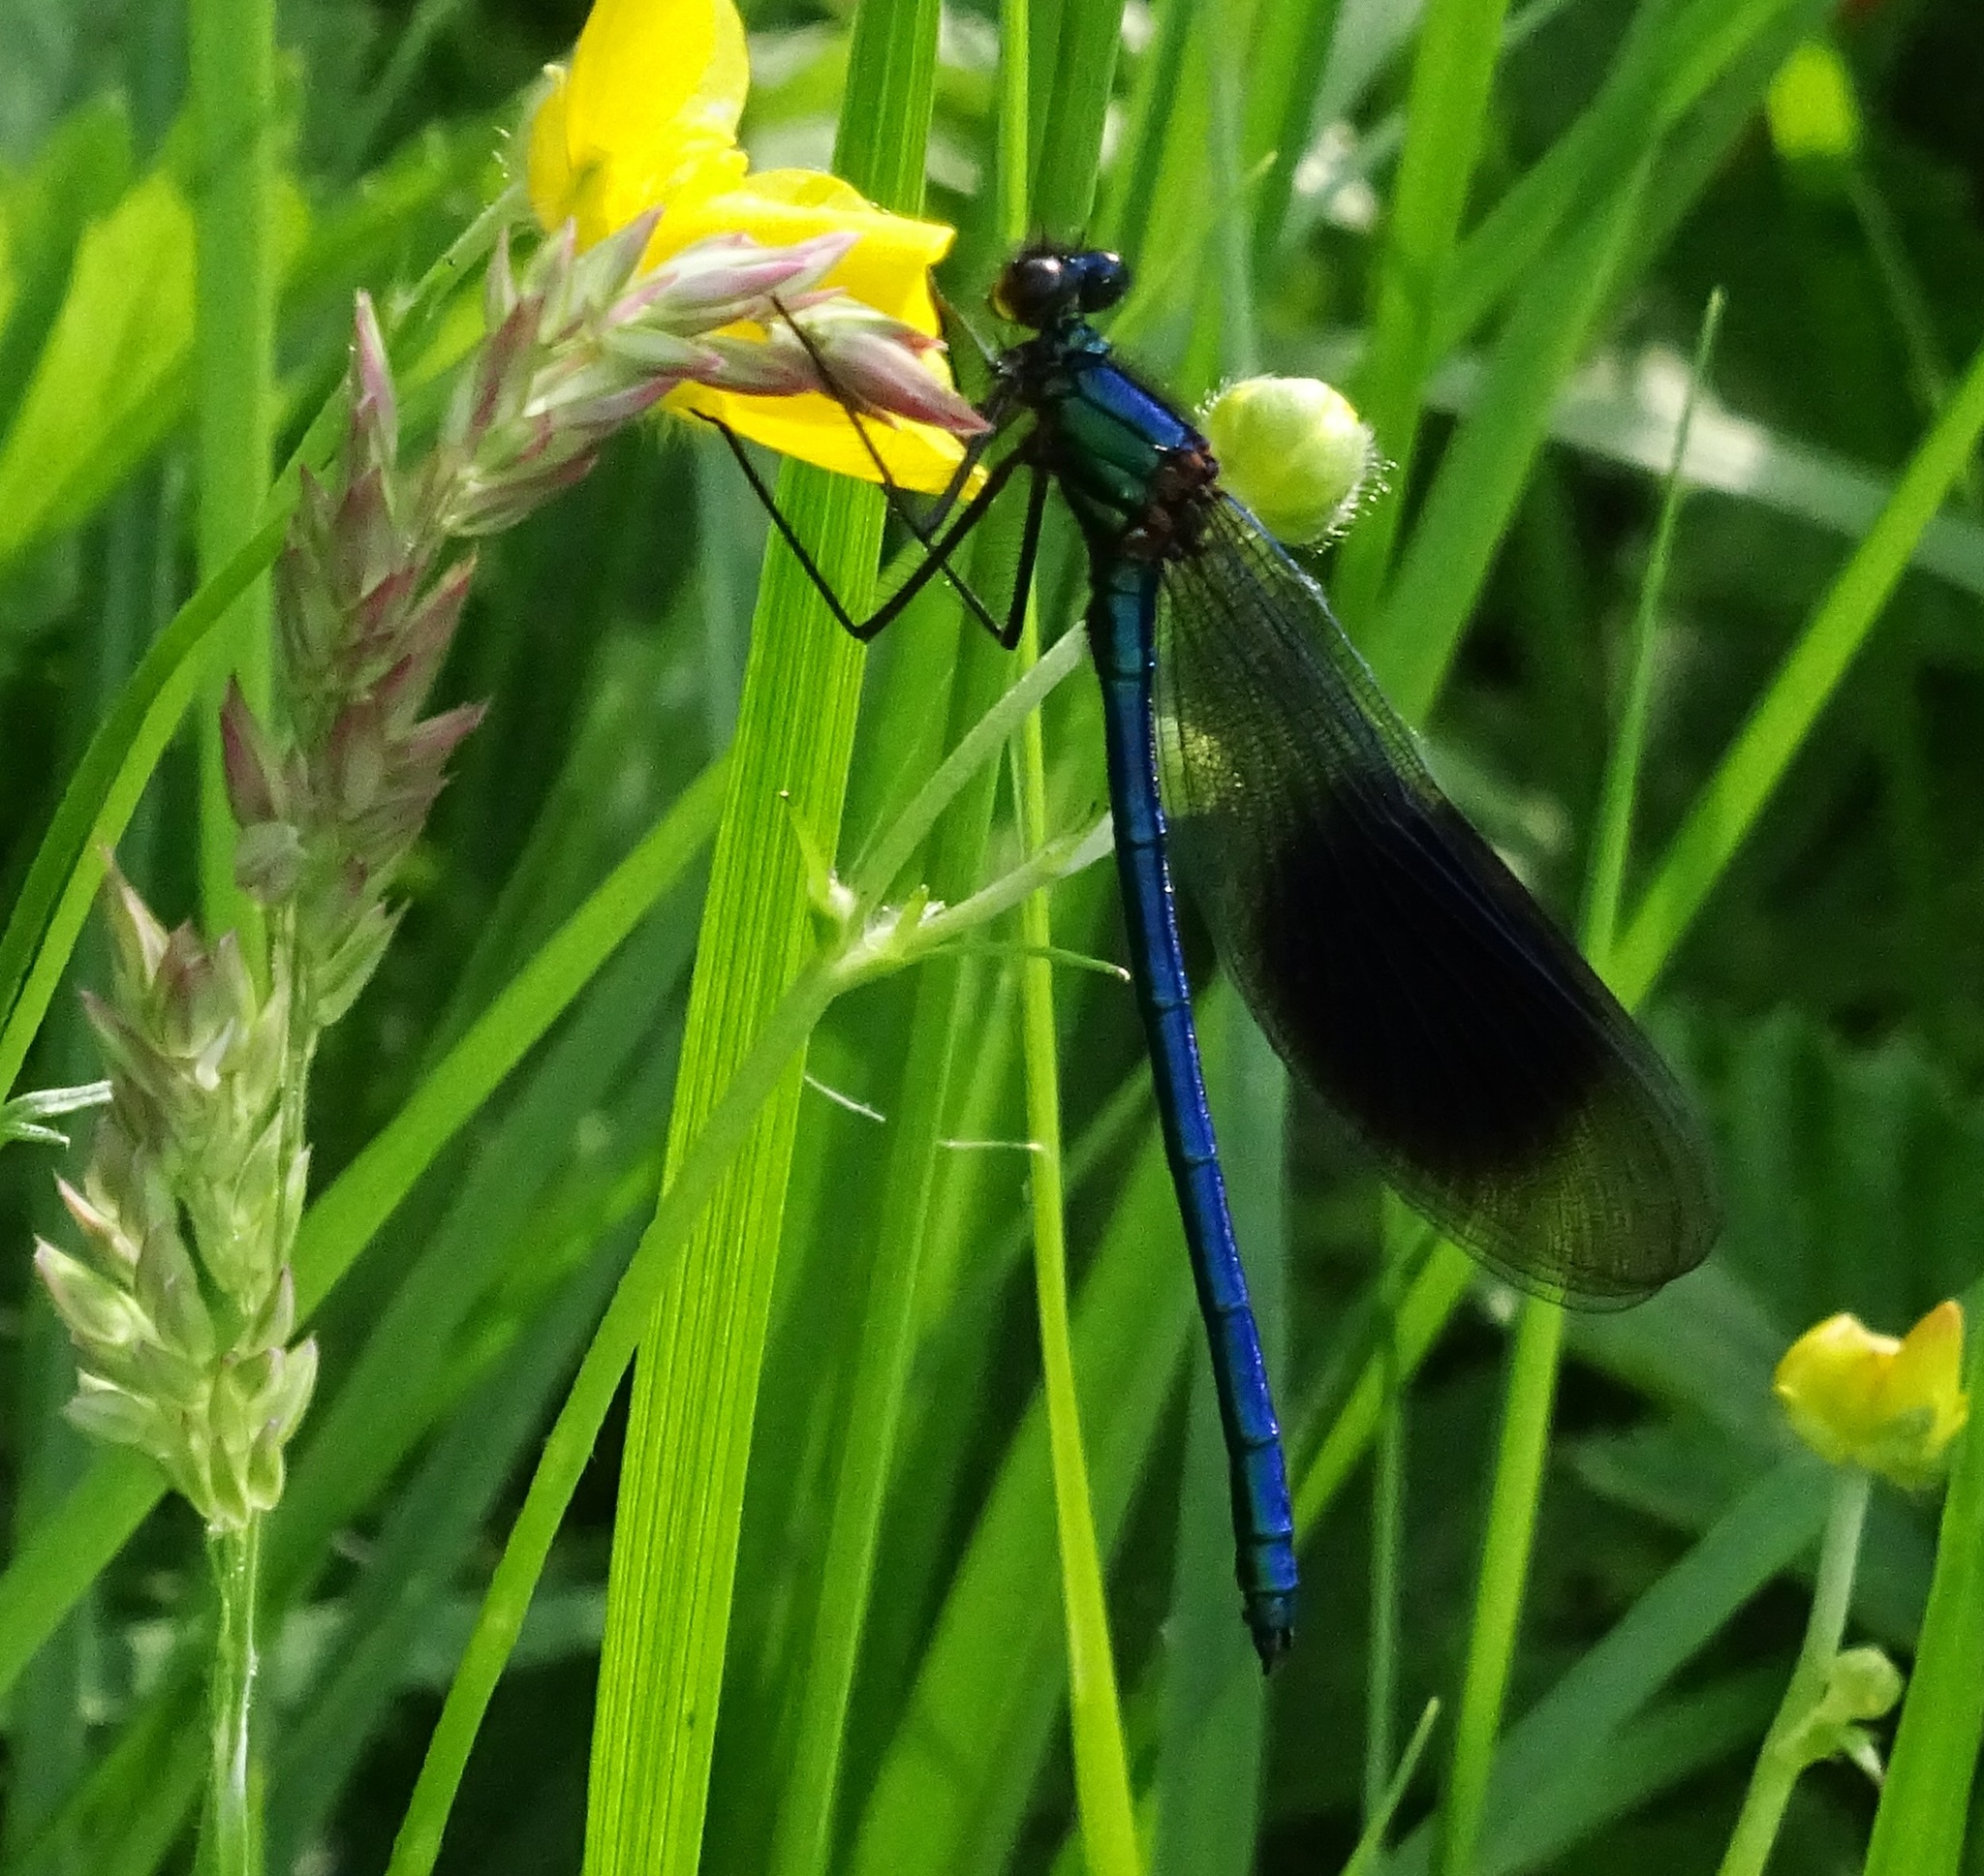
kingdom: Animalia
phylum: Arthropoda
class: Insecta
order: Odonata
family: Calopterygidae
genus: Calopteryx
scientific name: Calopteryx splendens
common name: Banded demoiselle
